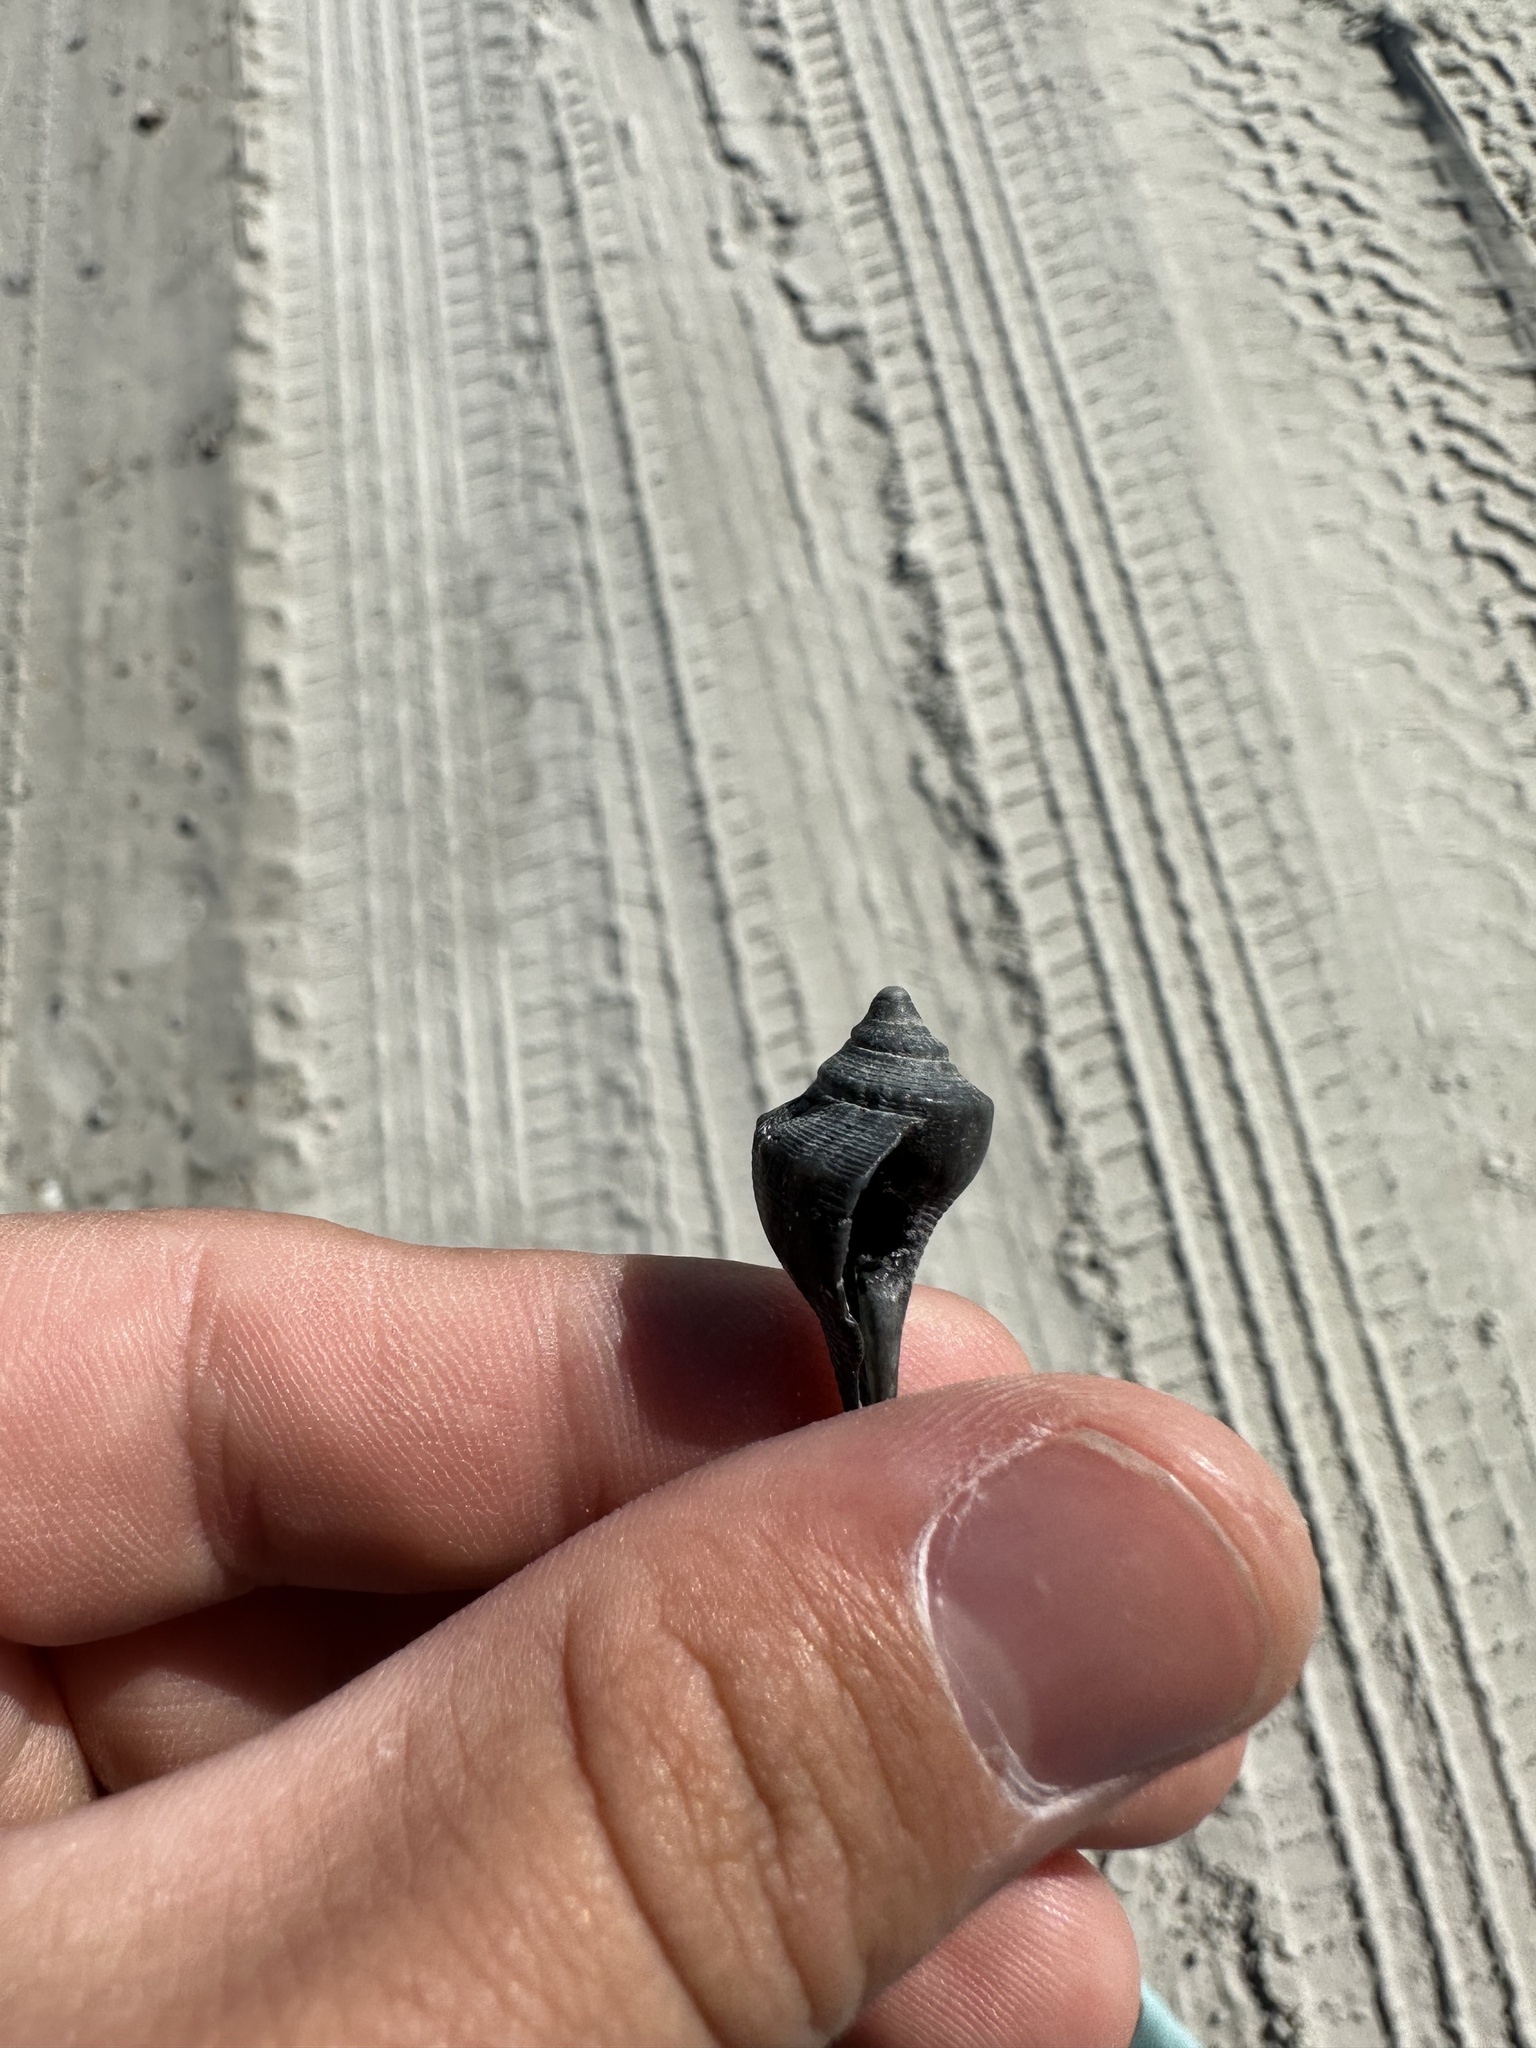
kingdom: Animalia
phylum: Mollusca
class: Gastropoda
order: Neogastropoda
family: Busyconidae
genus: Sinistrofulgur
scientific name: Sinistrofulgur sinistrum
